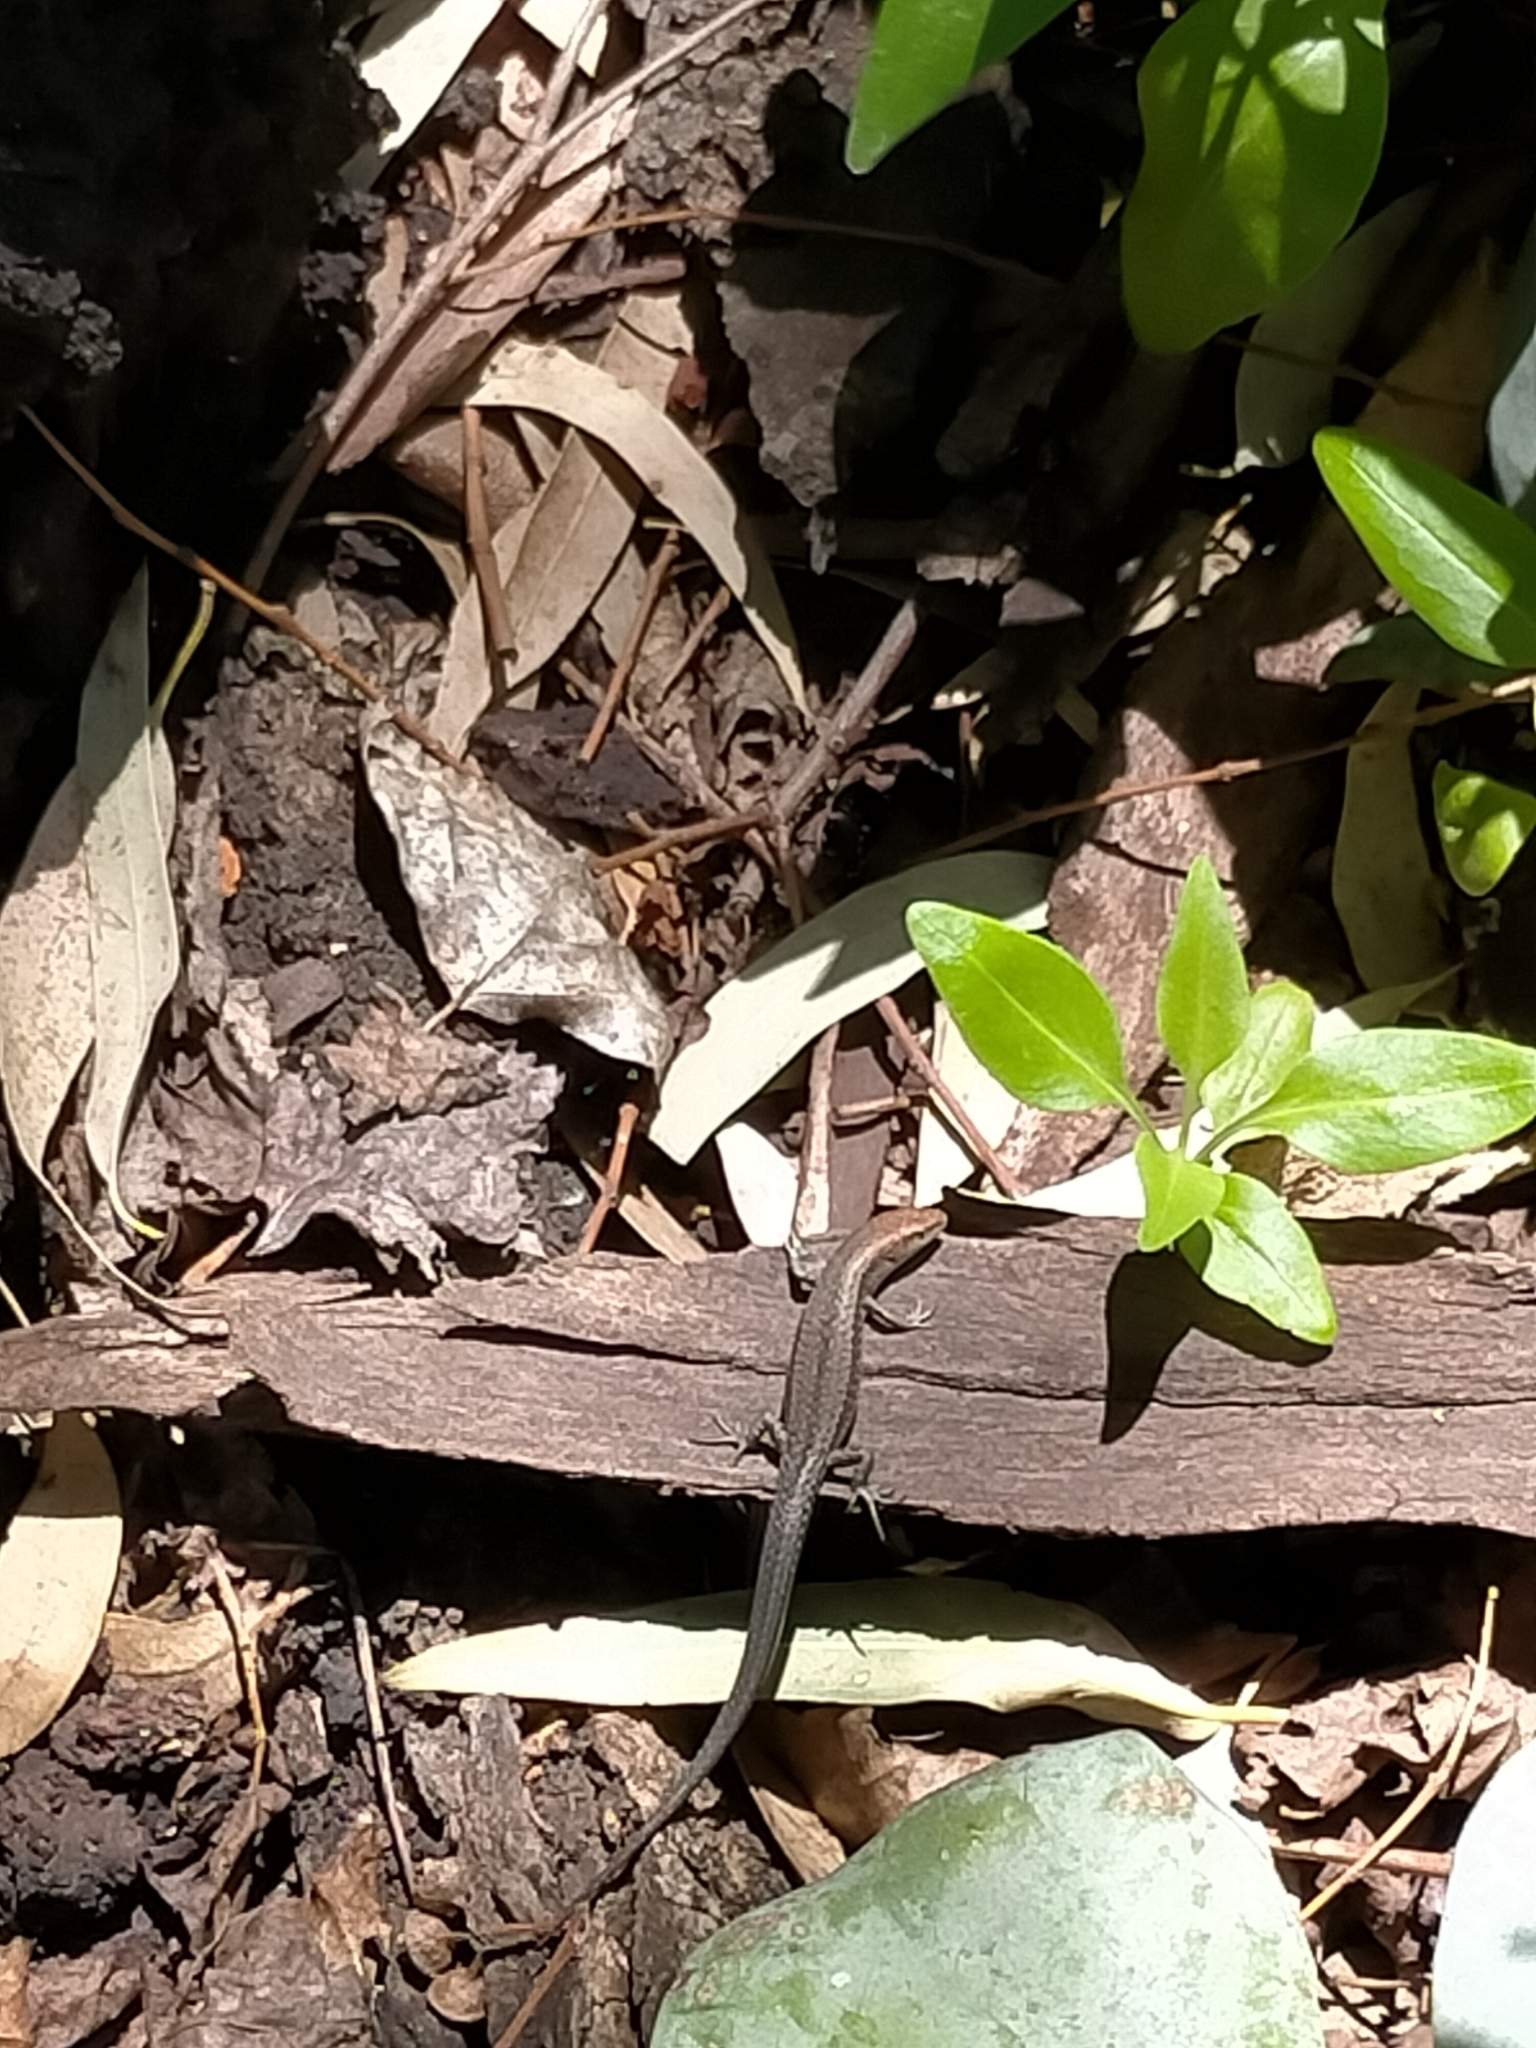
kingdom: Animalia
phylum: Chordata
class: Squamata
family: Scincidae
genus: Lampropholis
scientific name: Lampropholis guichenoti
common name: Garden skink
